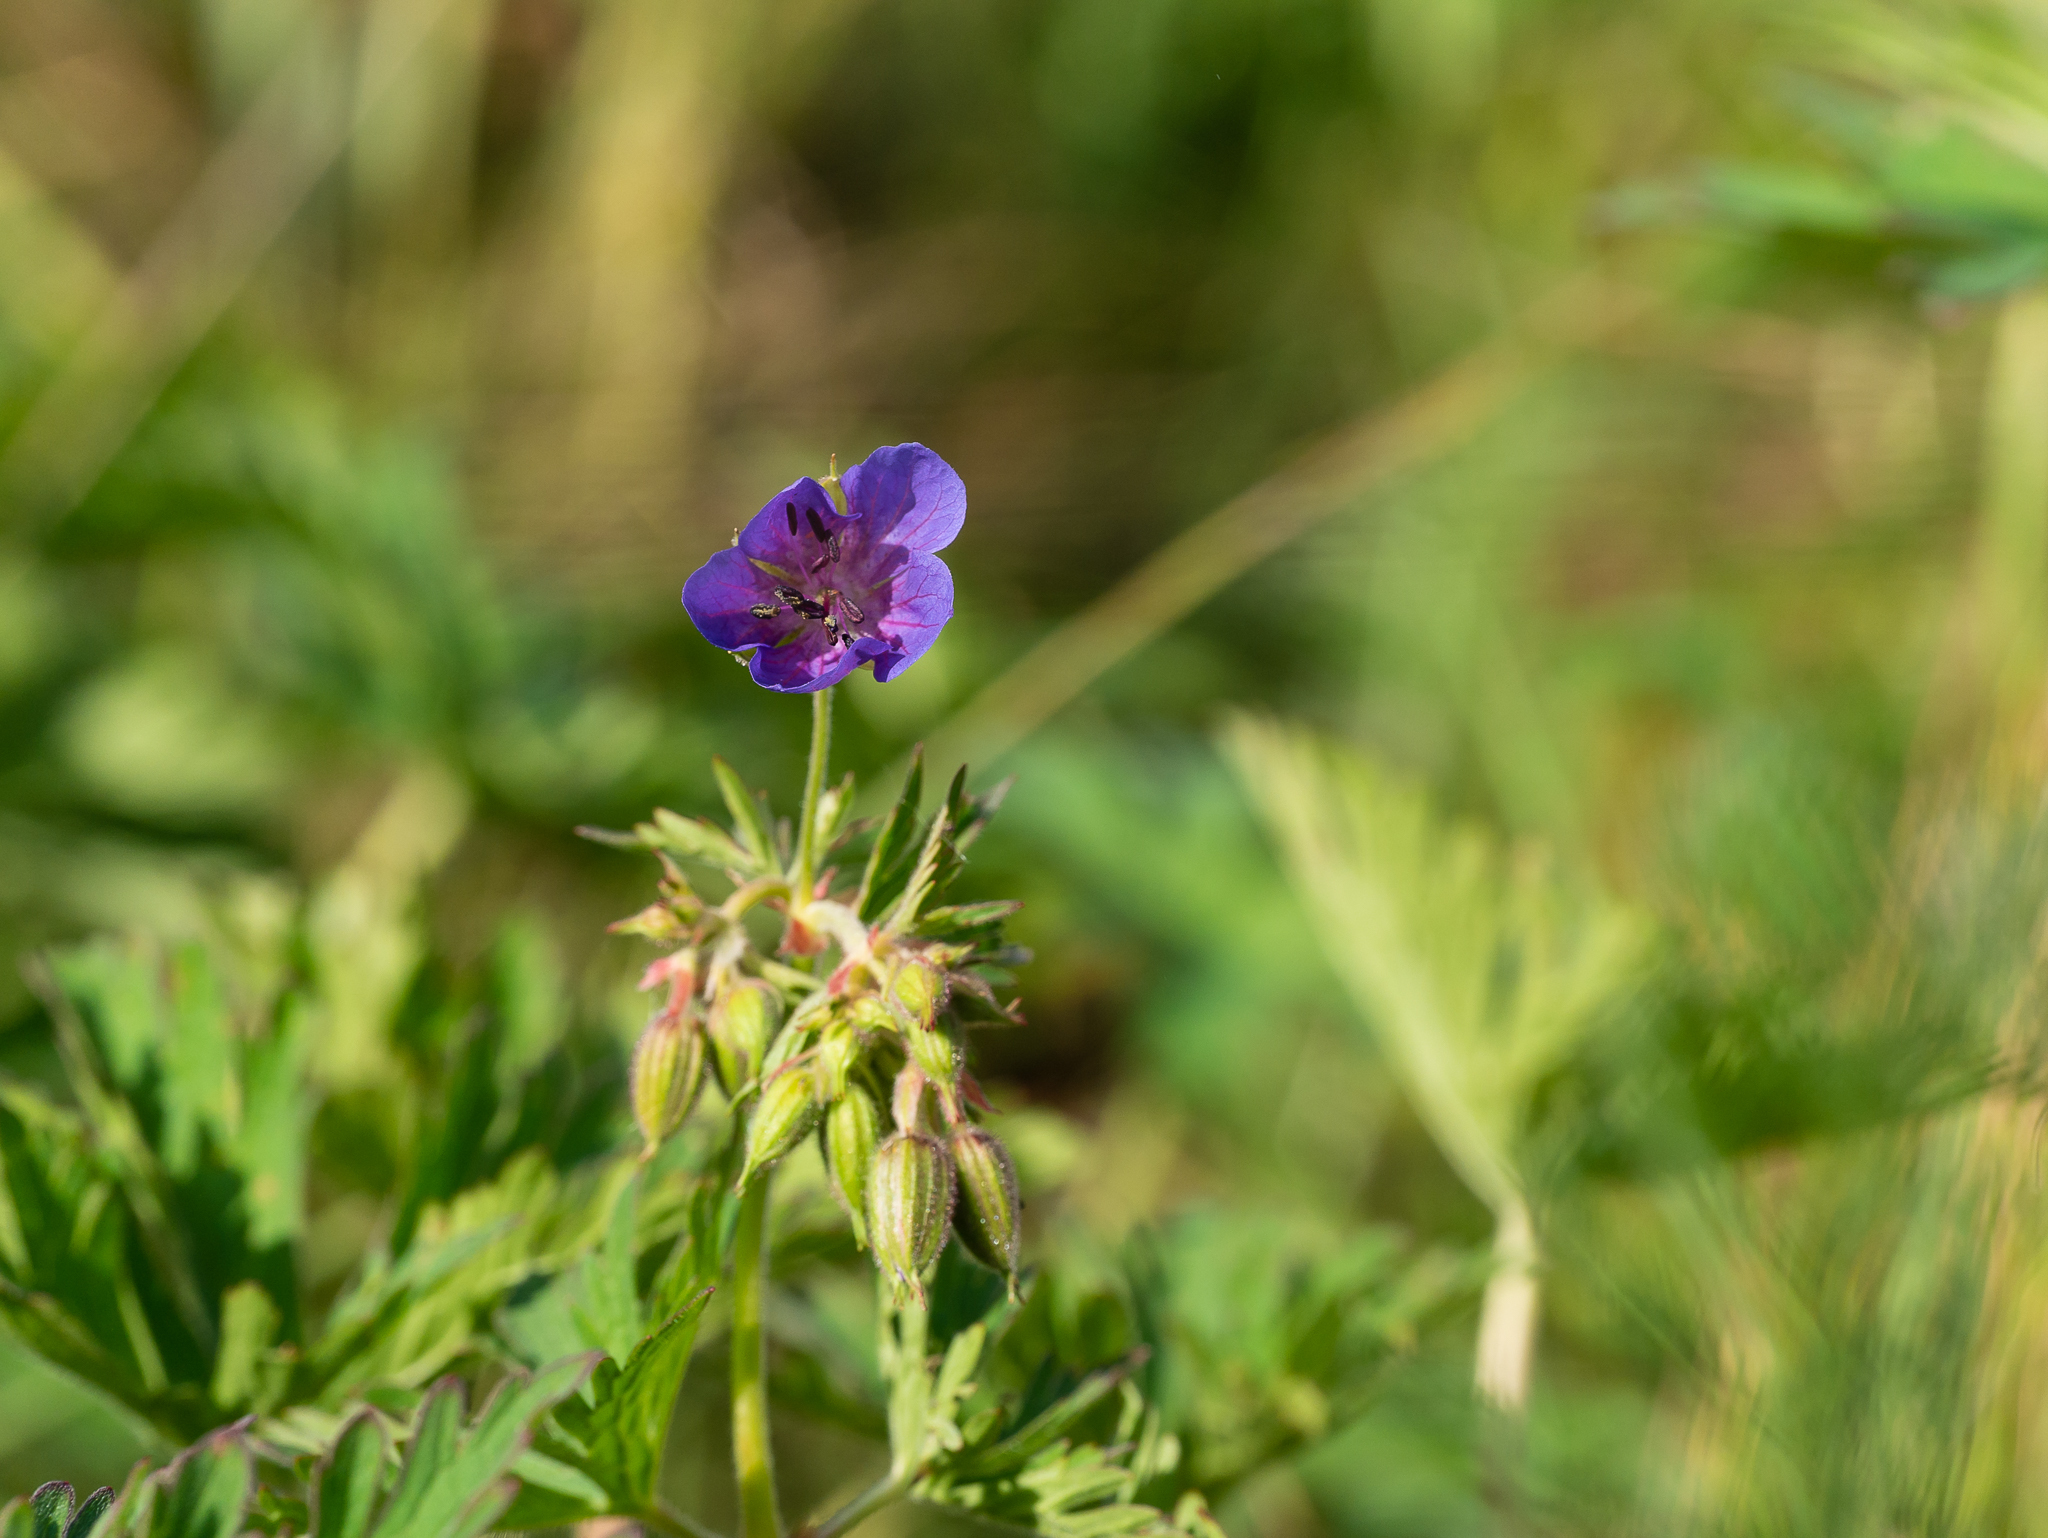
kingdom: Plantae
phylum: Tracheophyta
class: Magnoliopsida
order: Geraniales
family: Geraniaceae
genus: Geranium
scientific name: Geranium pratense
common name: Meadow crane's-bill
